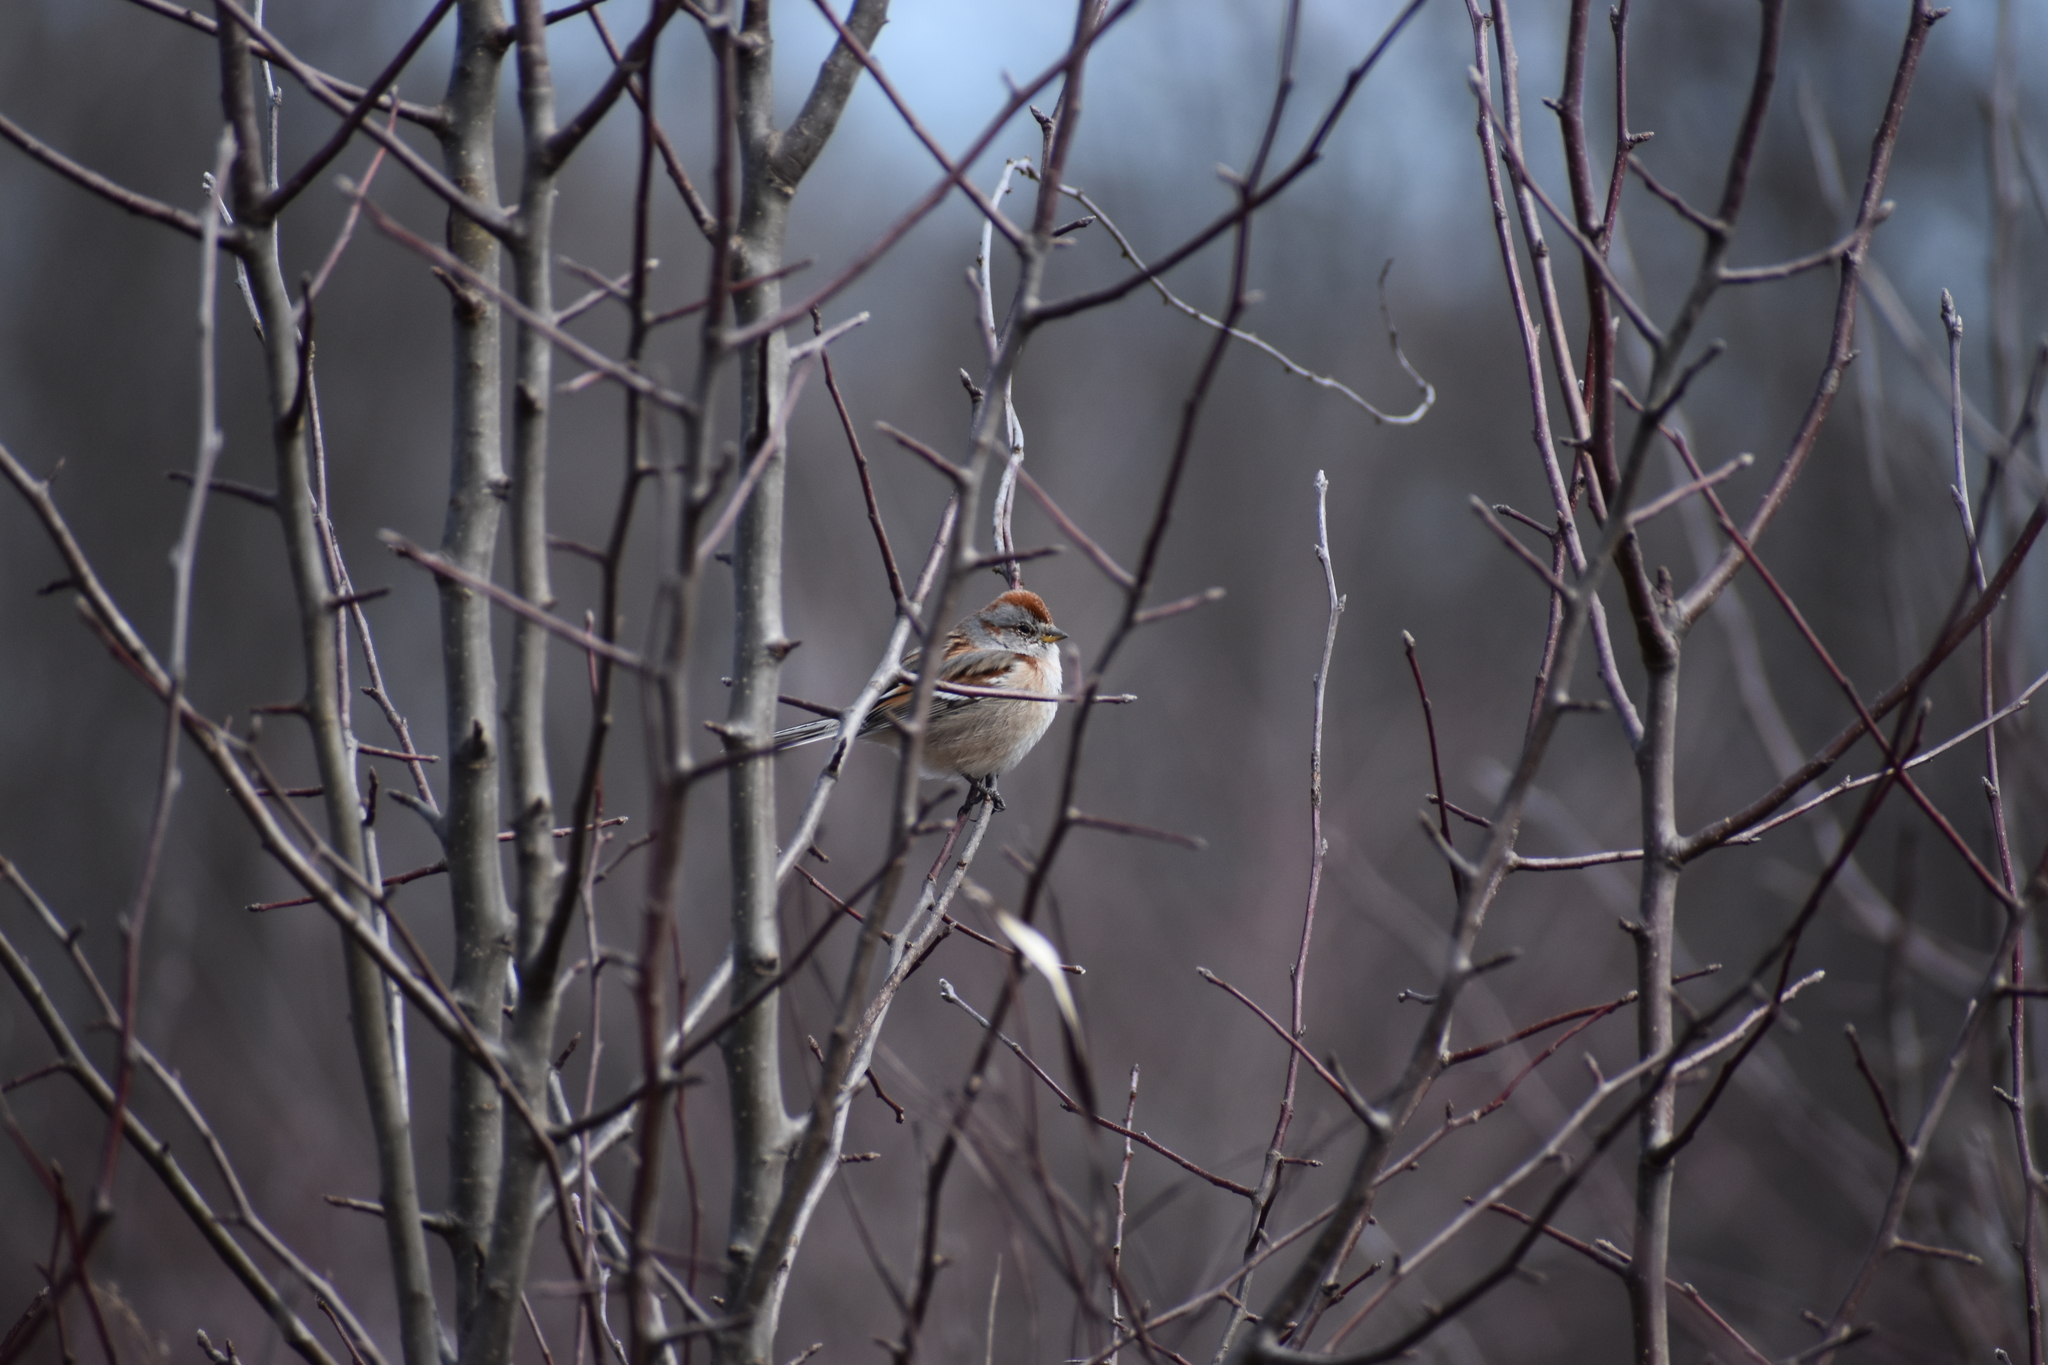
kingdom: Animalia
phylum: Chordata
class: Aves
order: Passeriformes
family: Passerellidae
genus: Spizelloides
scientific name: Spizelloides arborea
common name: American tree sparrow
